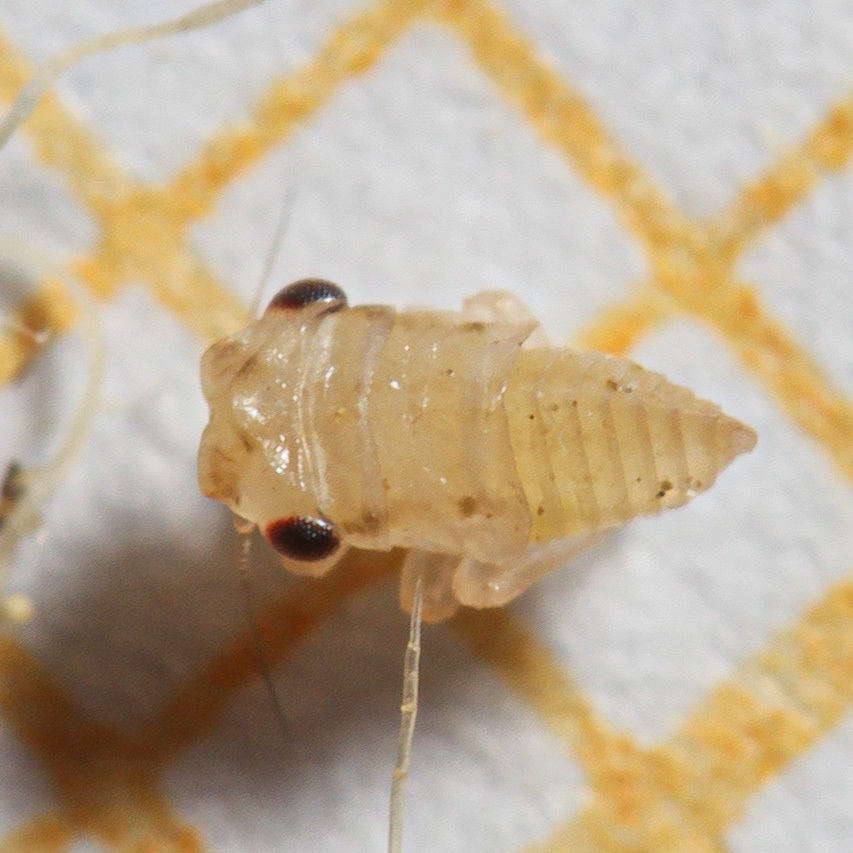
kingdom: Animalia
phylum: Arthropoda
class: Insecta
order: Hemiptera
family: Cicadellidae
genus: Megophthalmus
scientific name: Megophthalmus scanicus
